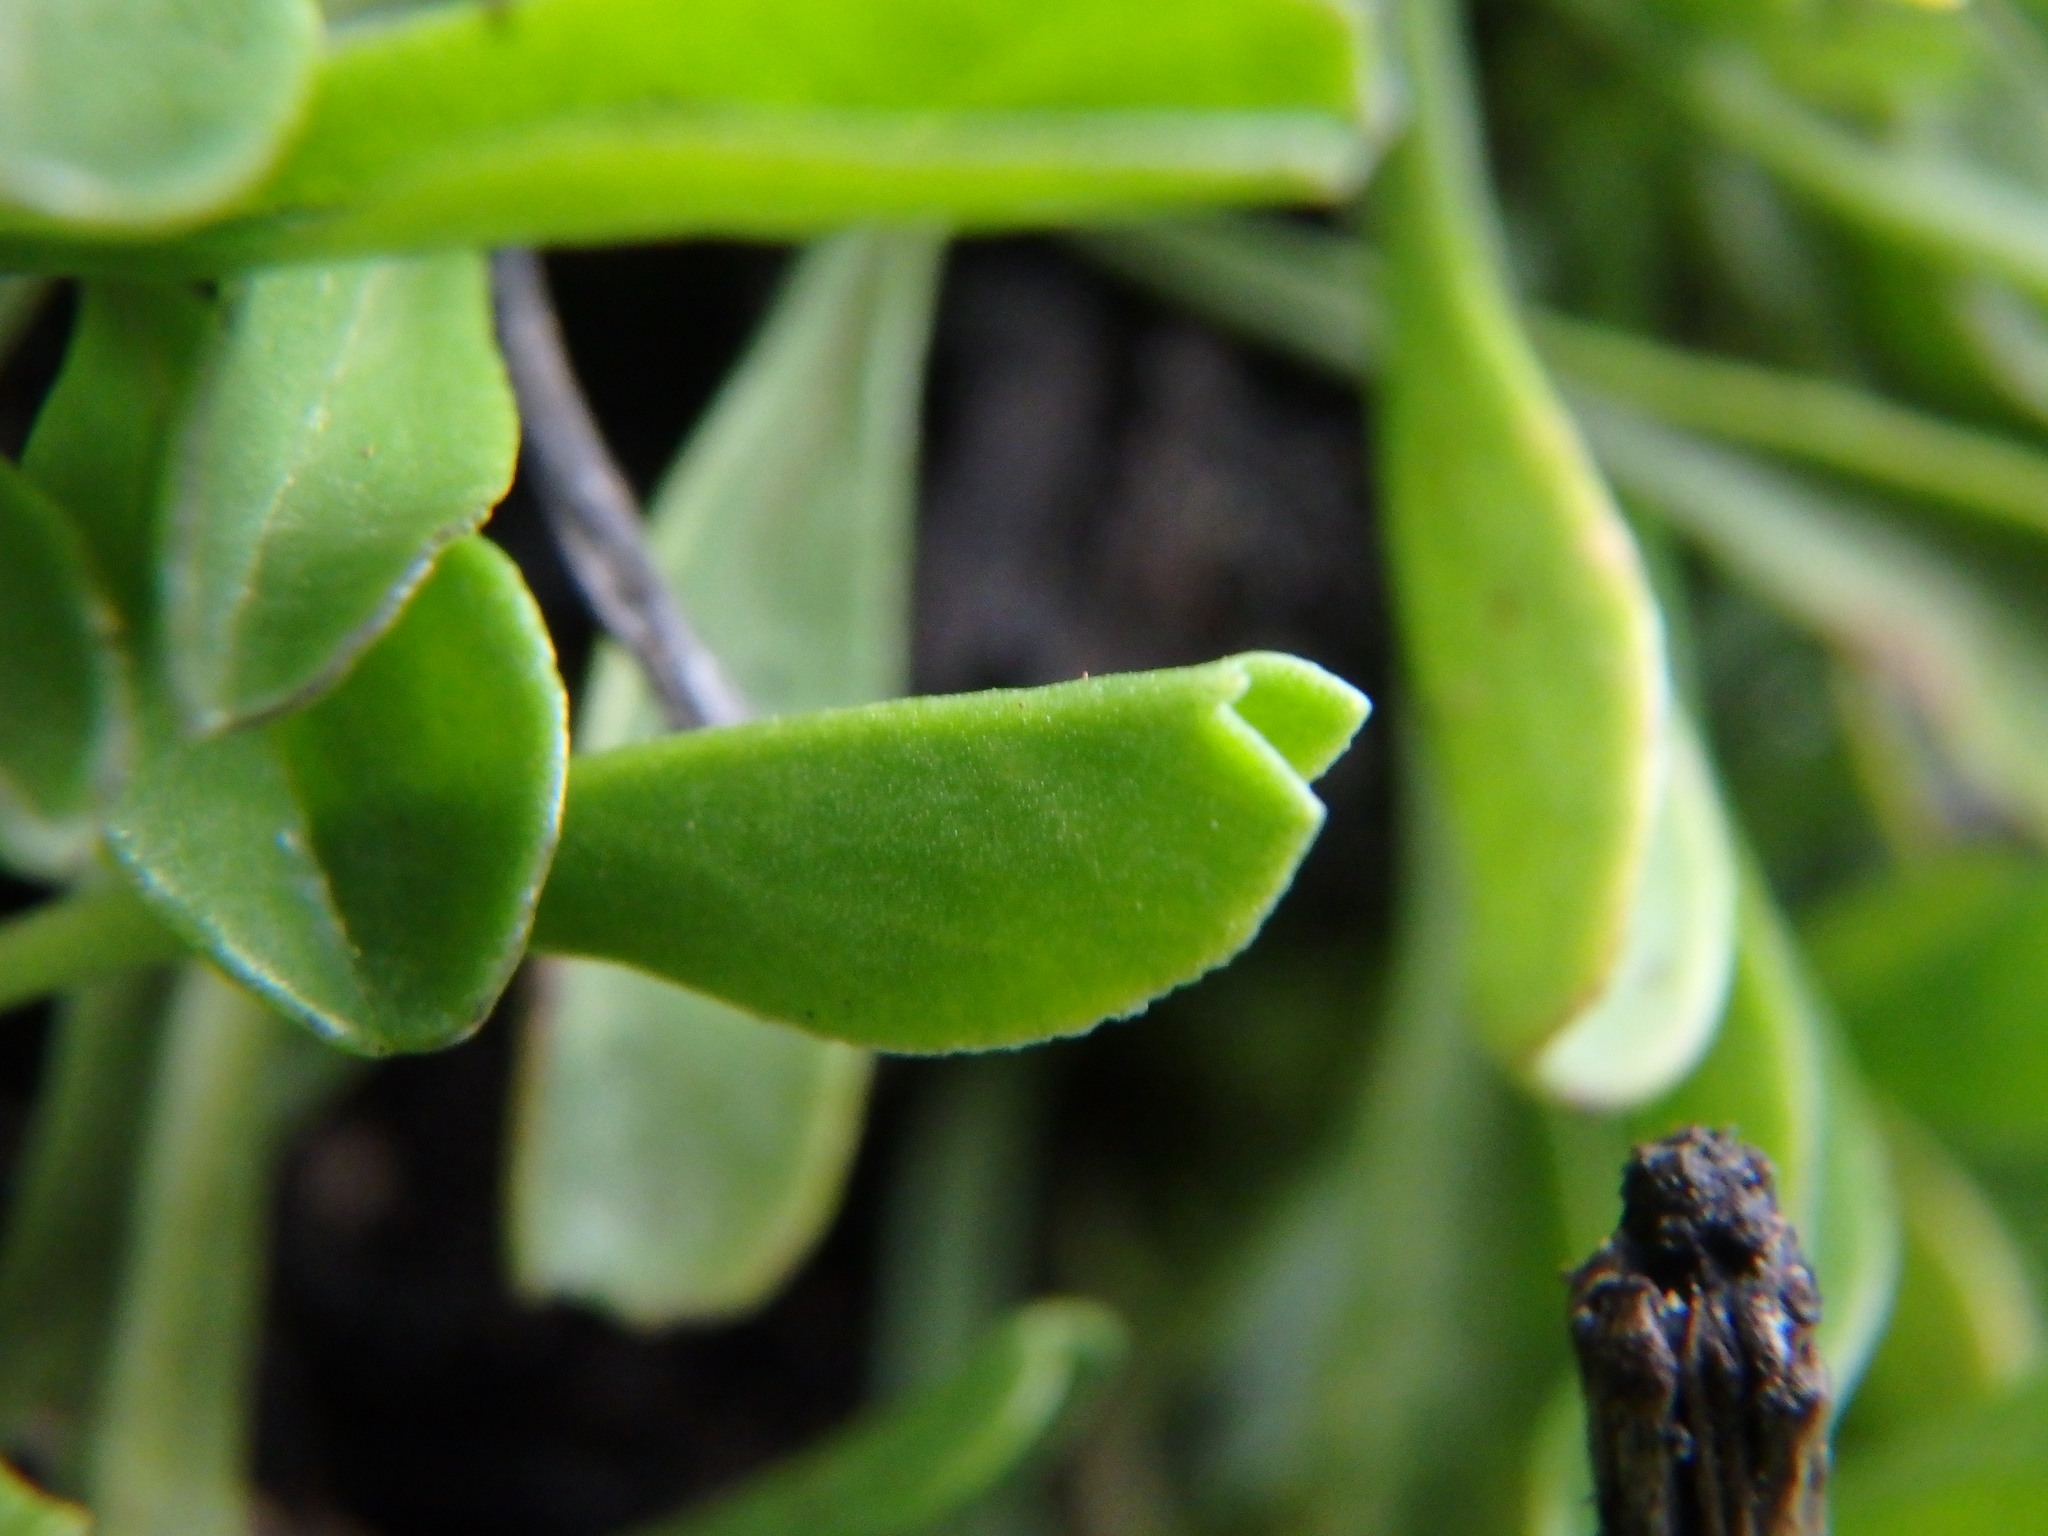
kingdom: Plantae
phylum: Tracheophyta
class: Magnoliopsida
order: Lamiales
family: Plantaginaceae
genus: Globularia
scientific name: Globularia cordifolia
